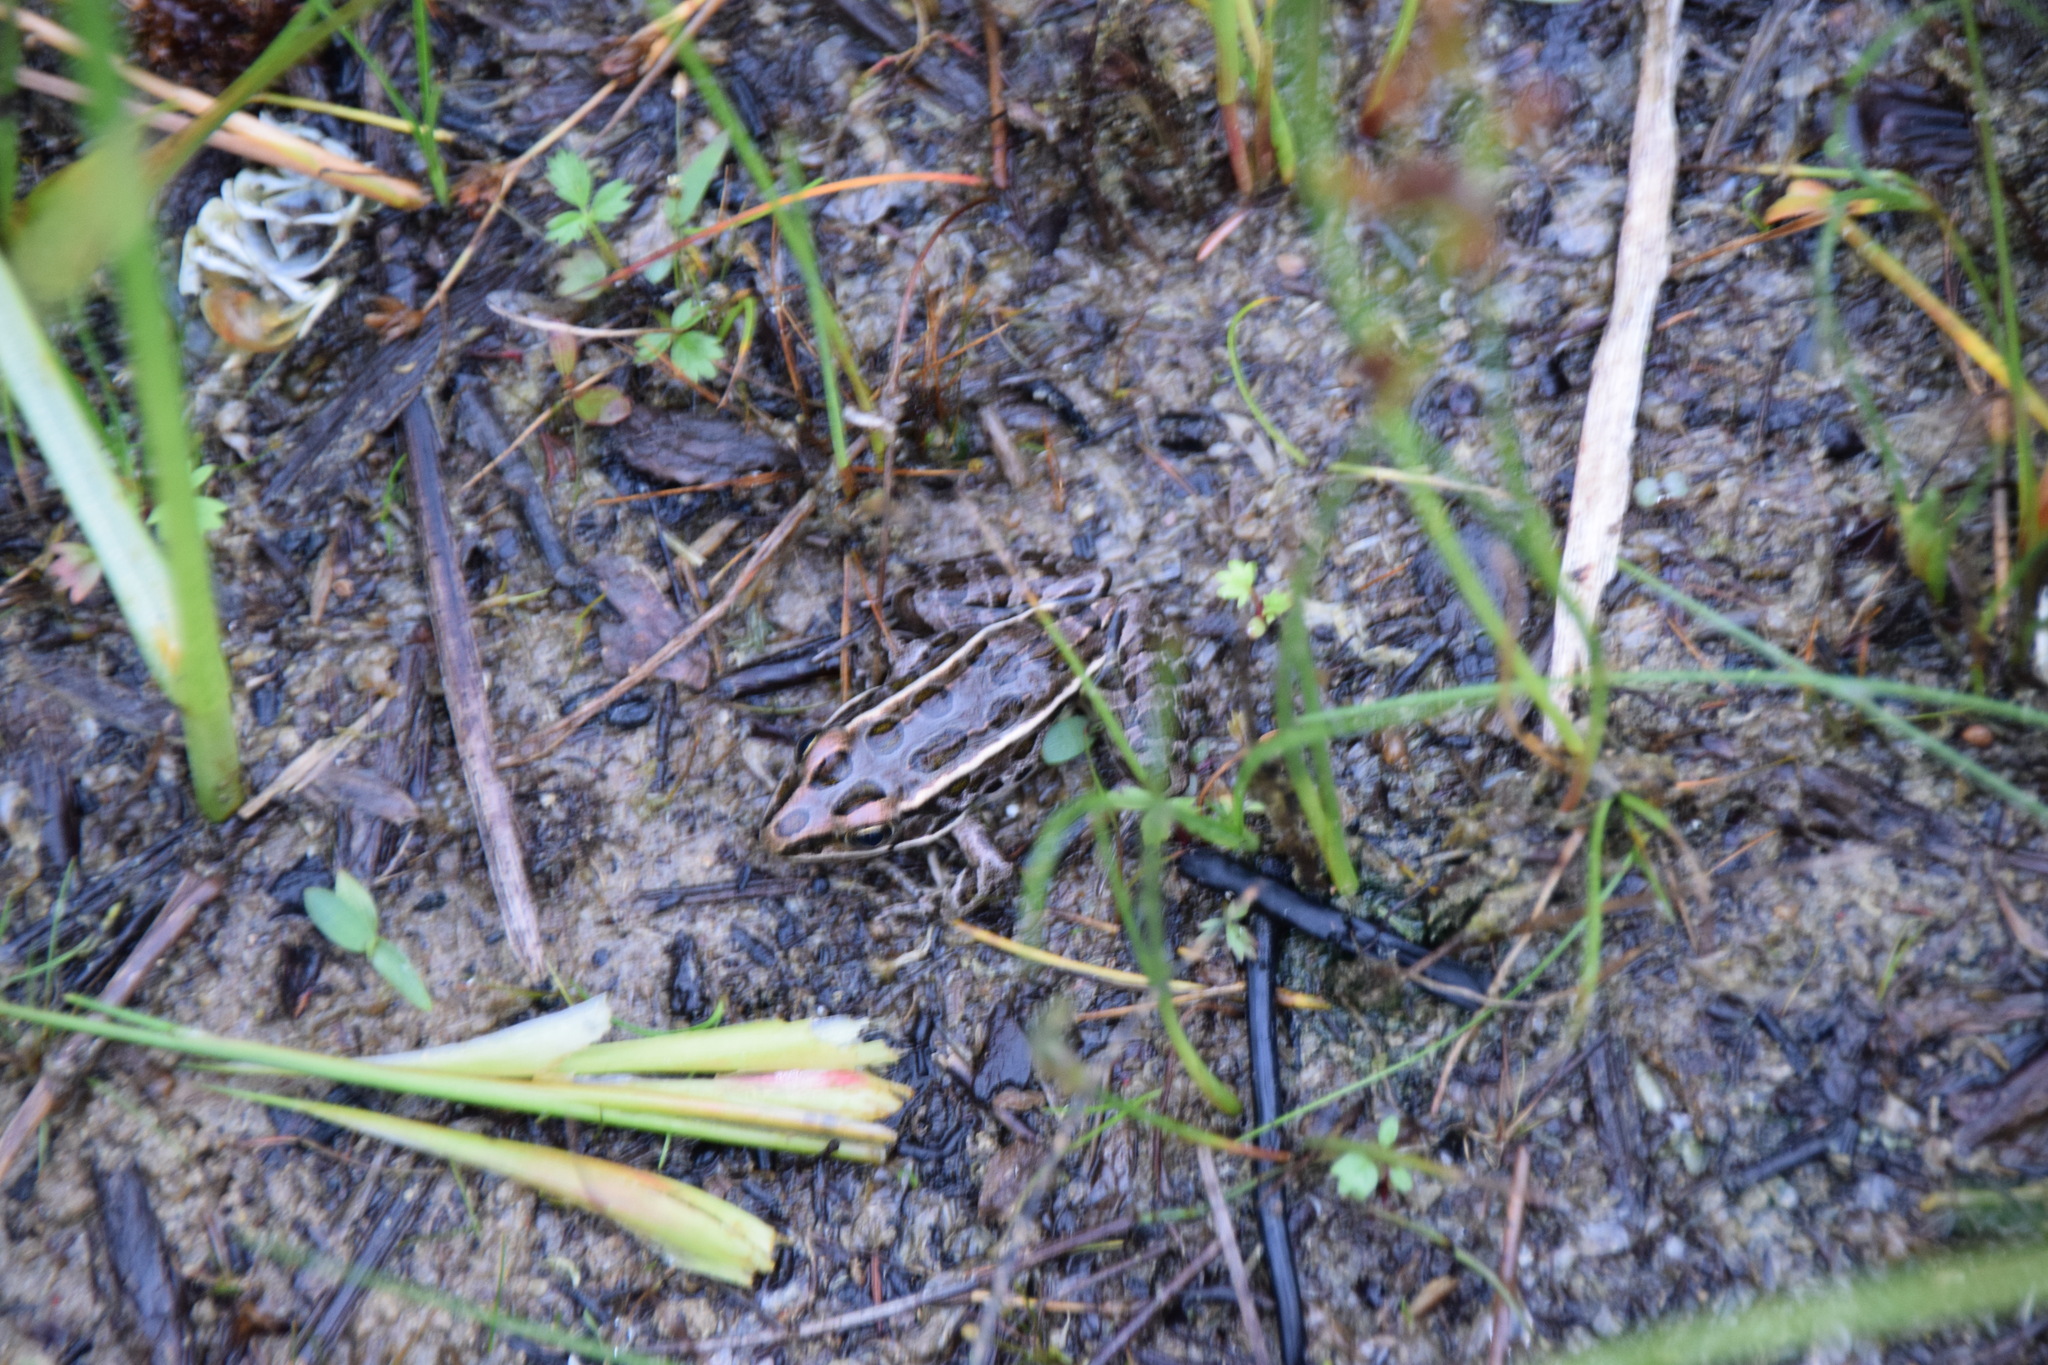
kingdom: Animalia
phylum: Chordata
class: Amphibia
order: Anura
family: Ranidae
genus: Lithobates
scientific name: Lithobates pipiens
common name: Northern leopard frog
